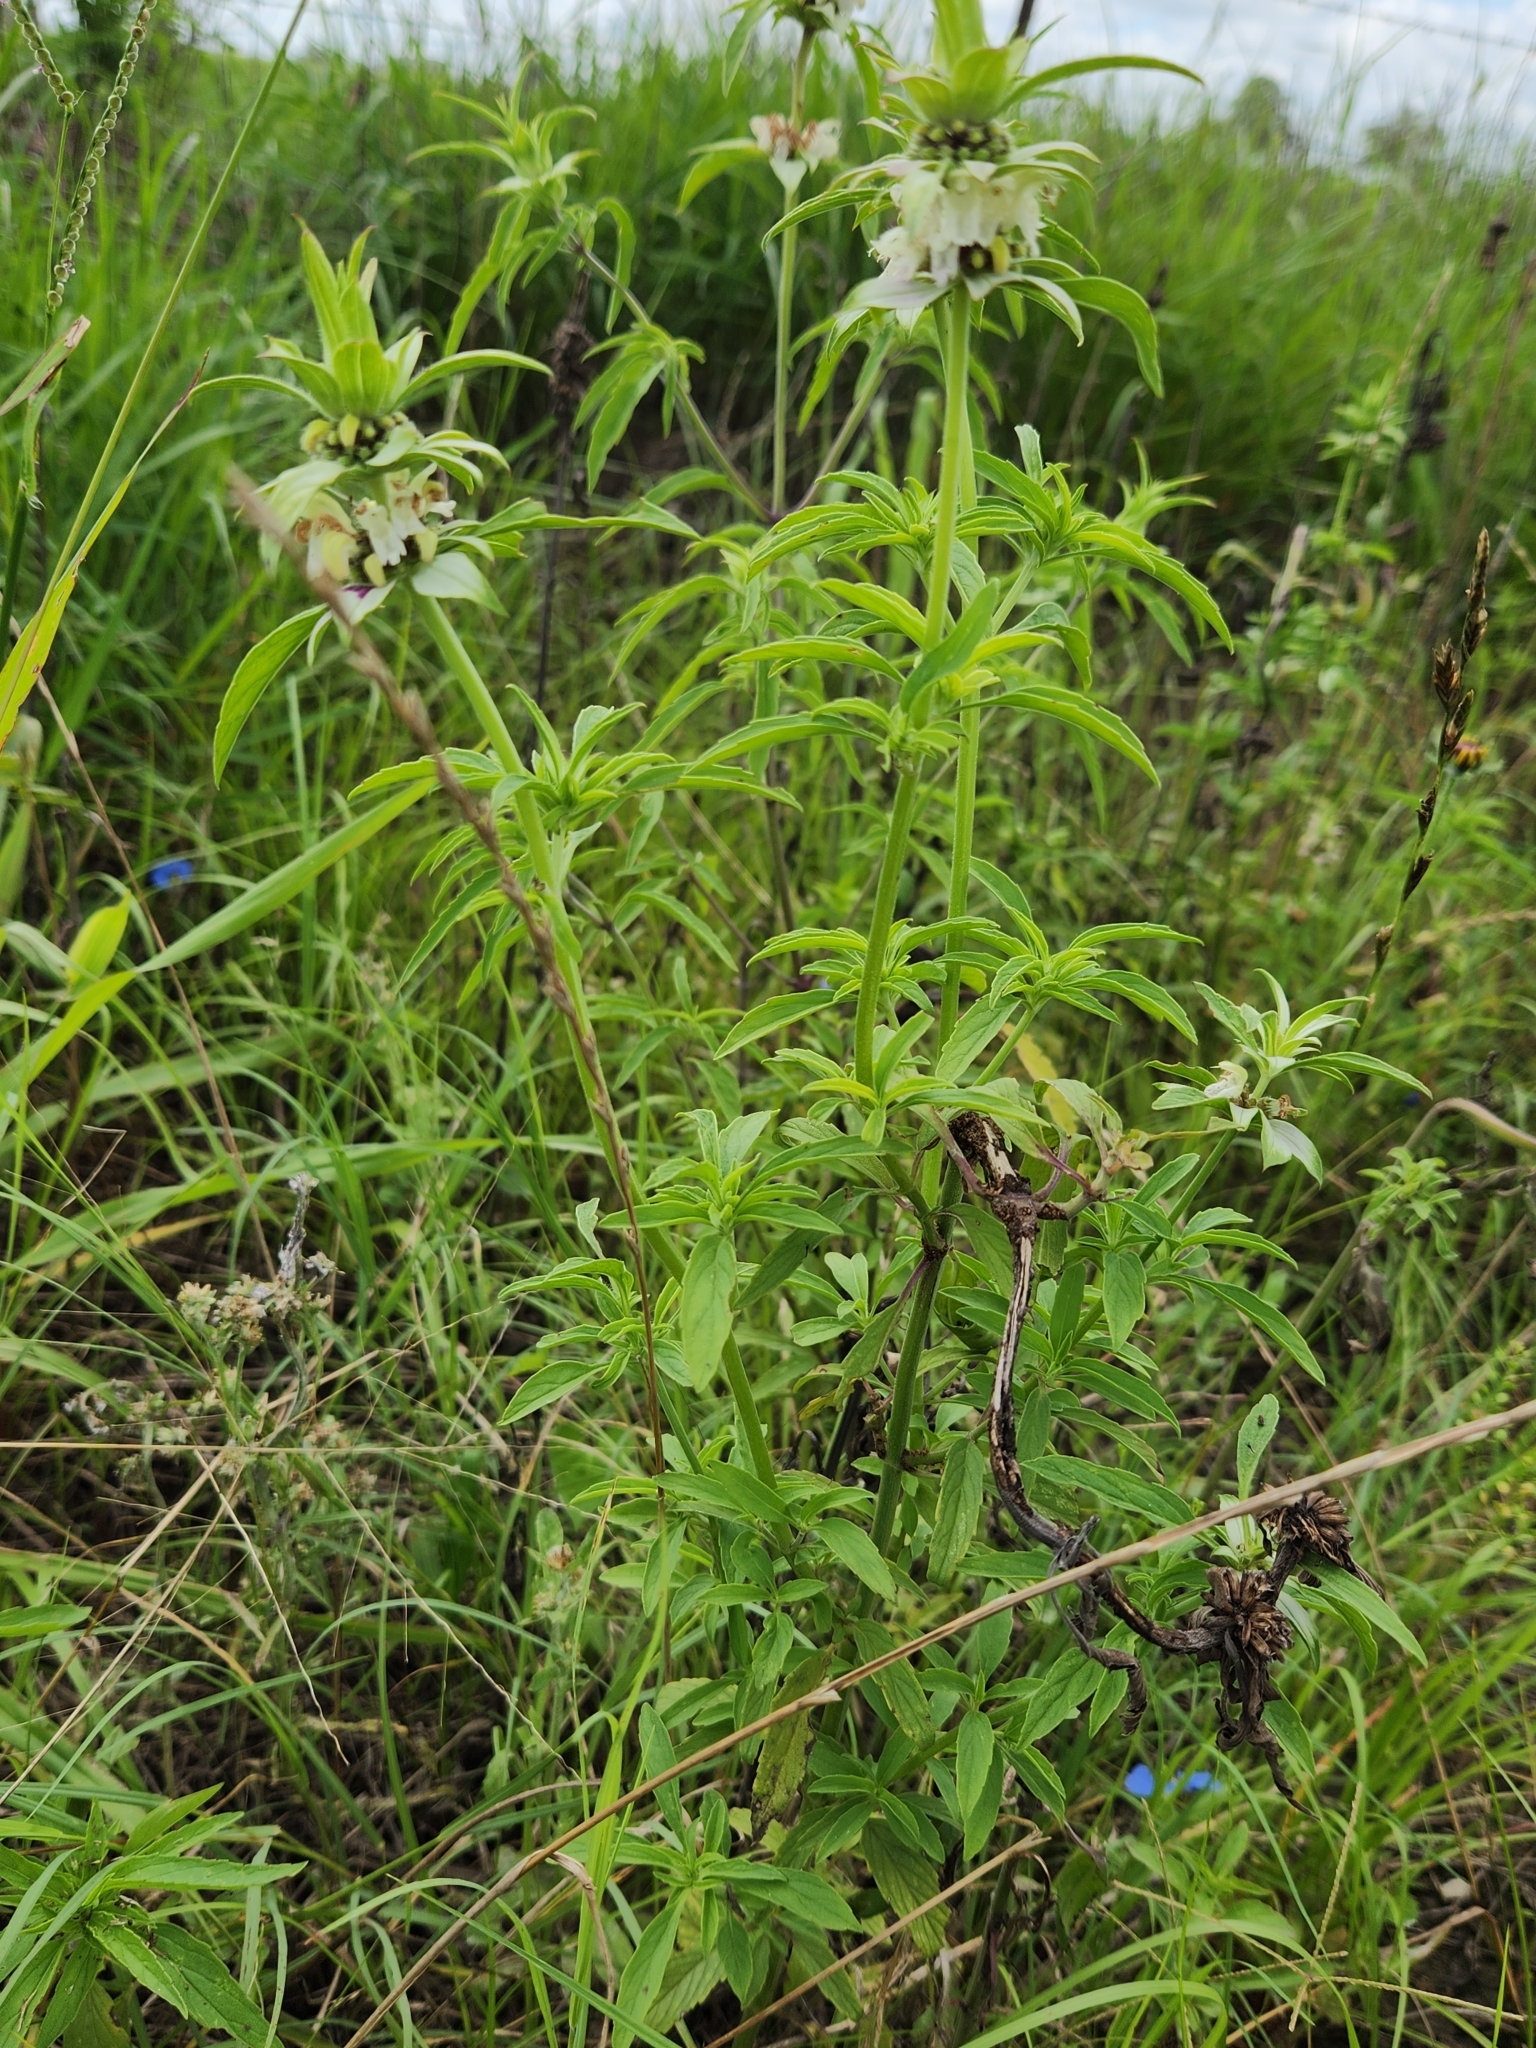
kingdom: Plantae
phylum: Tracheophyta
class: Magnoliopsida
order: Lamiales
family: Lamiaceae
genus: Monarda
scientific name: Monarda punctata
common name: Dotted monarda
